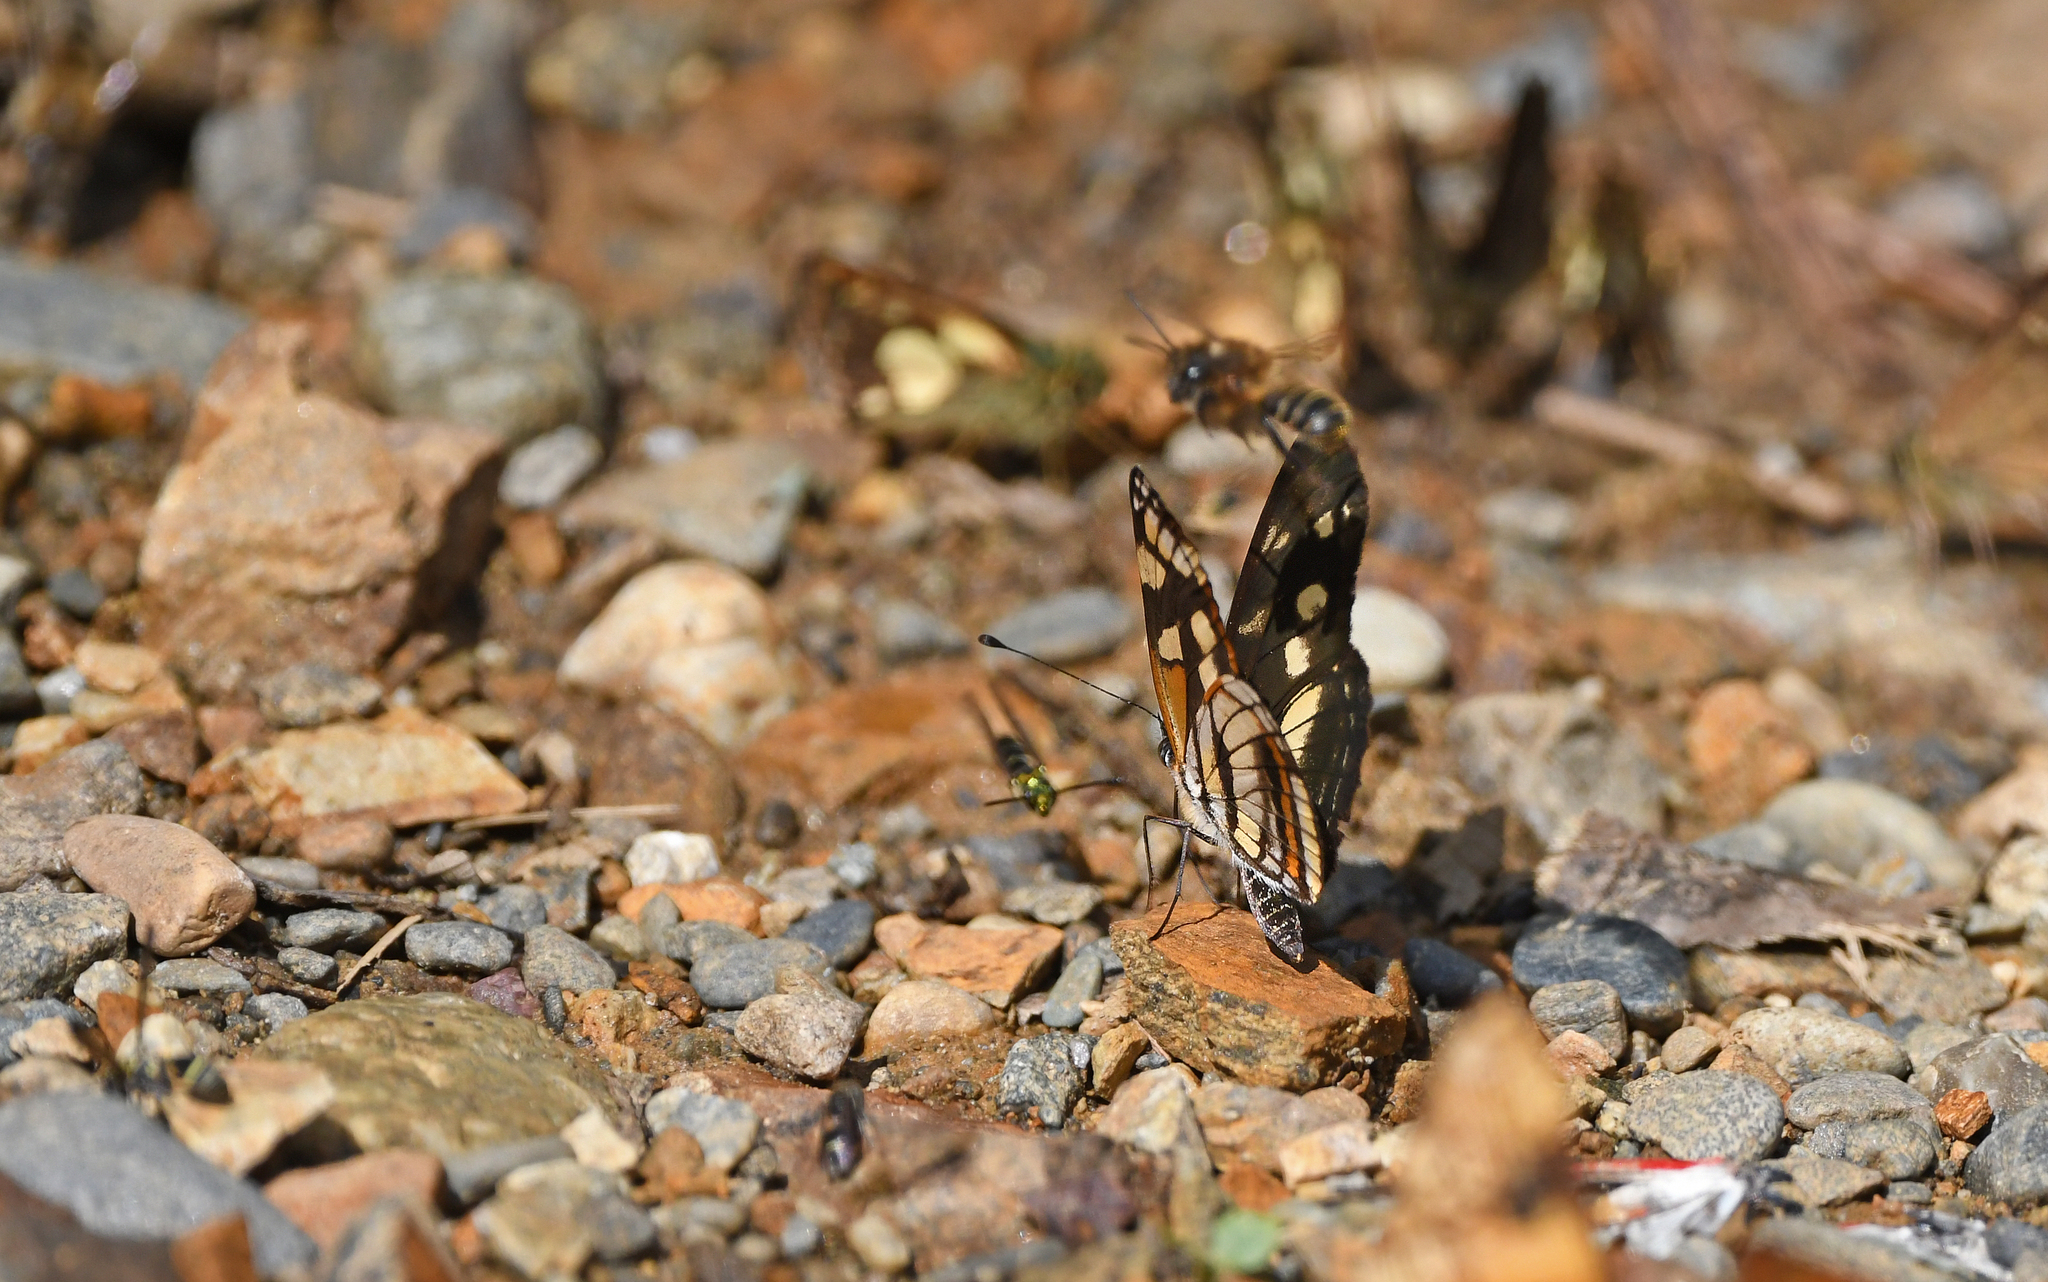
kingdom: Animalia
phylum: Arthropoda
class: Insecta
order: Lepidoptera
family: Nymphalidae
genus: Eresia
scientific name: Eresia polina
